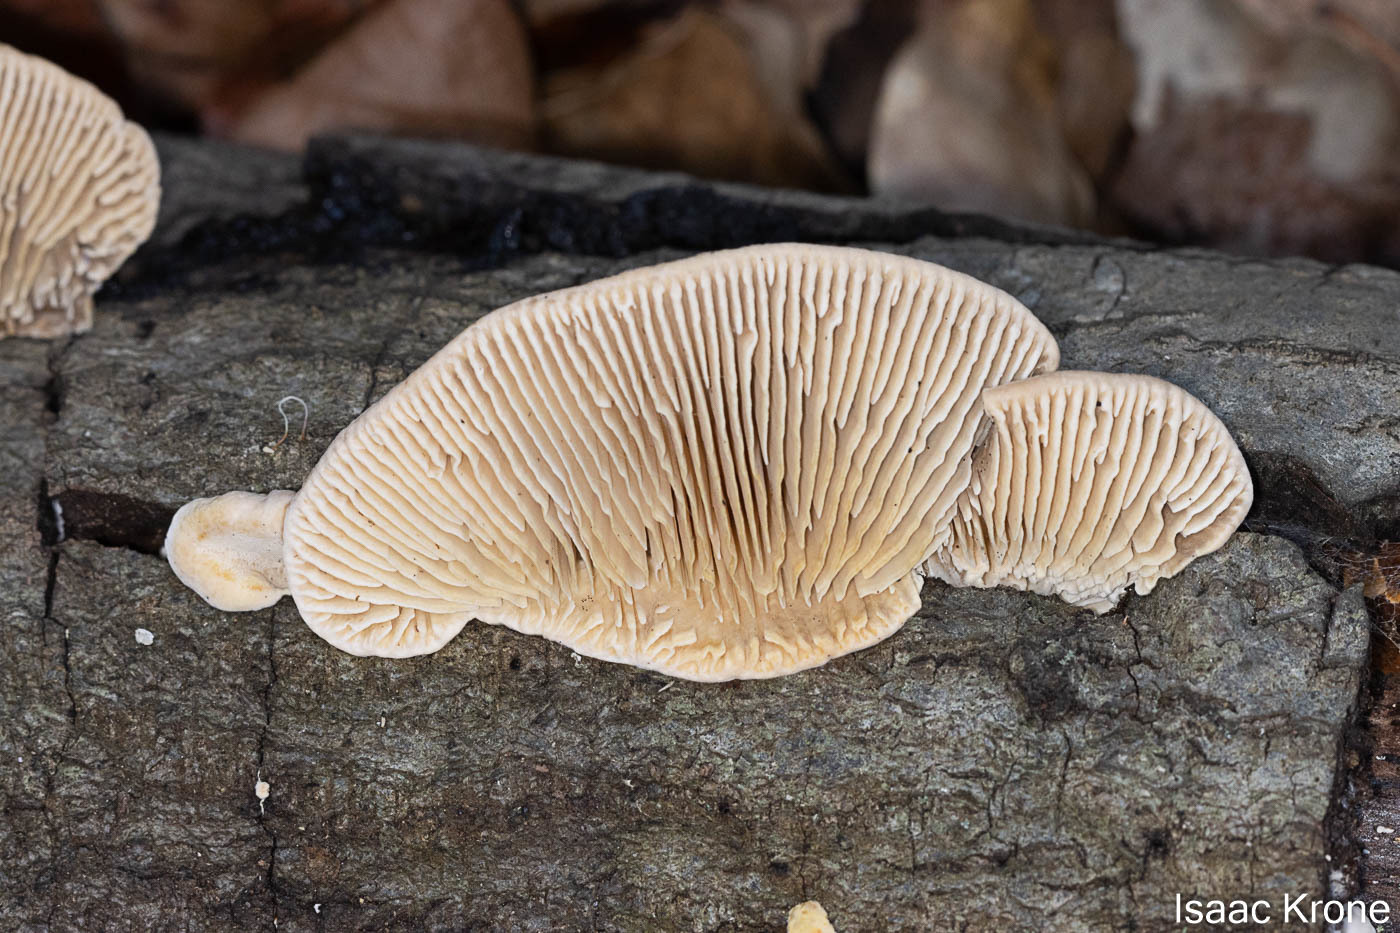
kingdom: Fungi
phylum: Basidiomycota
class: Agaricomycetes
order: Polyporales
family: Polyporaceae
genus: Lenzites
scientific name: Lenzites betulinus
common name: Birch mazegill
